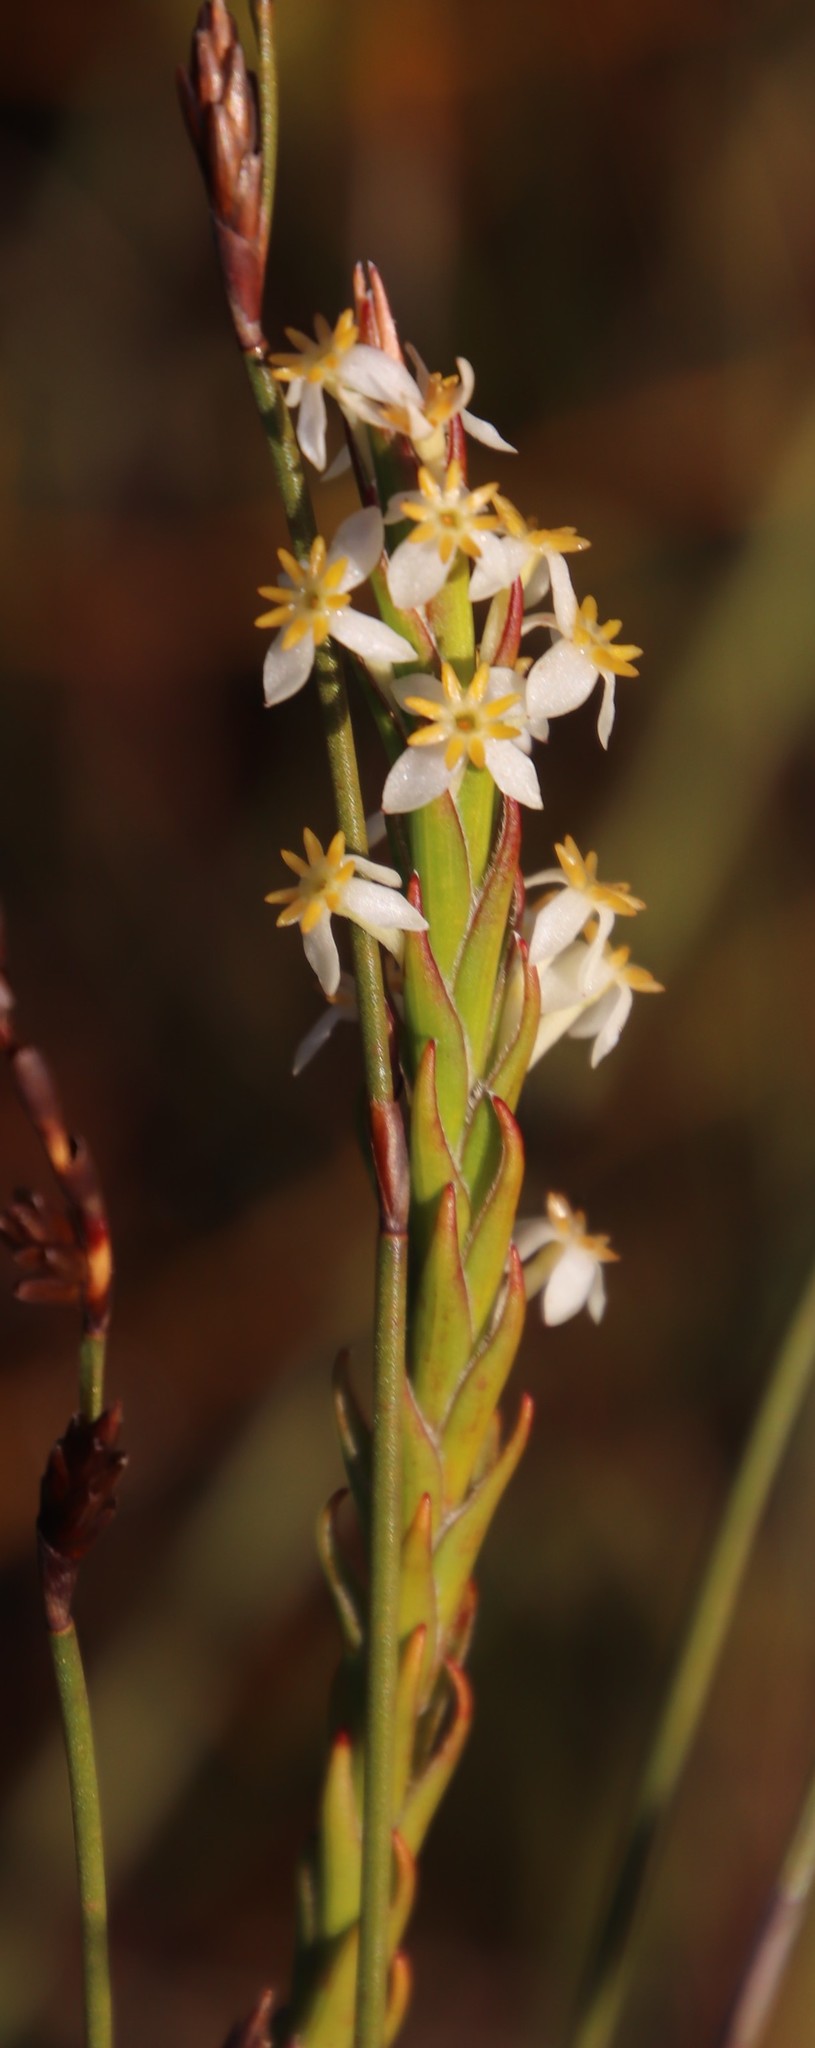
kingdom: Plantae
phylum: Tracheophyta
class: Magnoliopsida
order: Malvales
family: Thymelaeaceae
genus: Struthiola
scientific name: Struthiola ciliata
